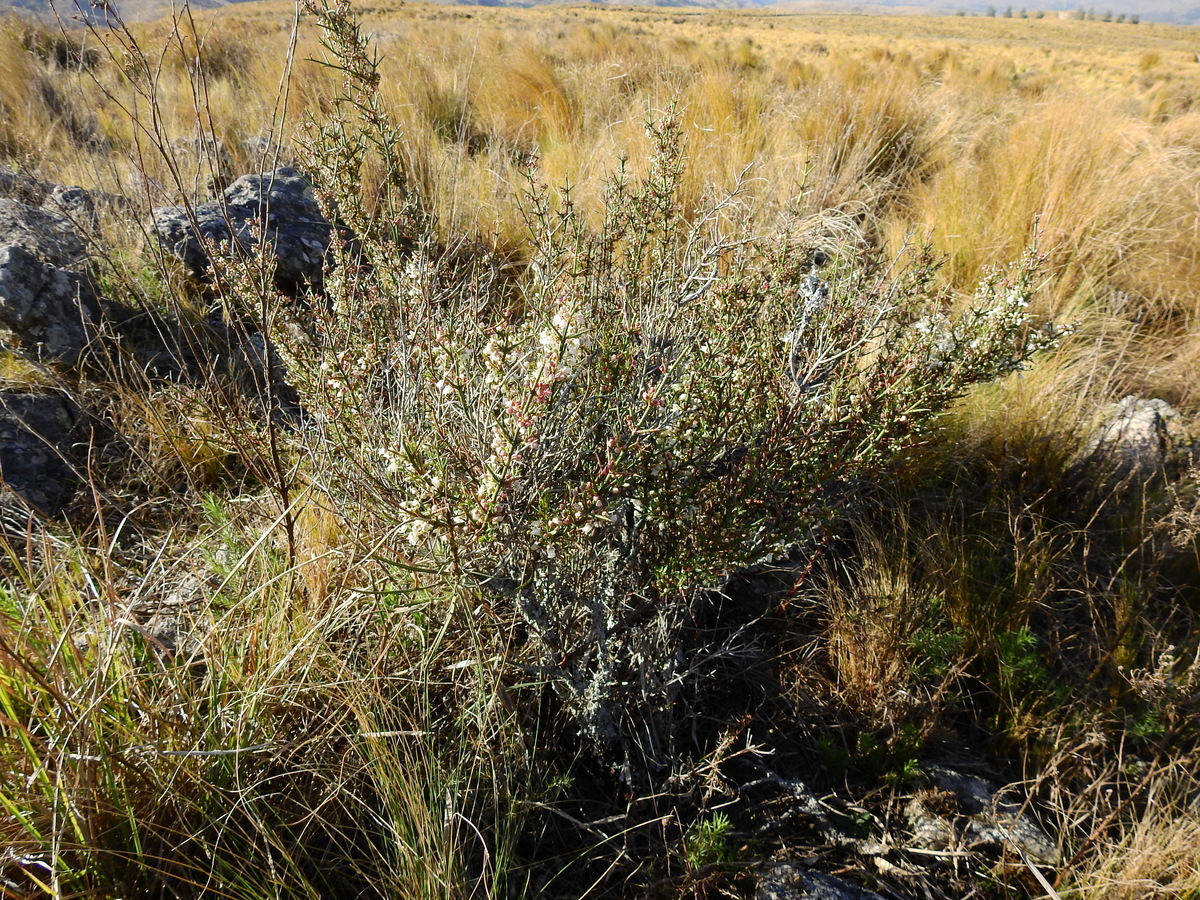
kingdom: Plantae
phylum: Tracheophyta
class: Magnoliopsida
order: Rosales
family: Rhamnaceae
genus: Discaria
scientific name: Discaria americana
